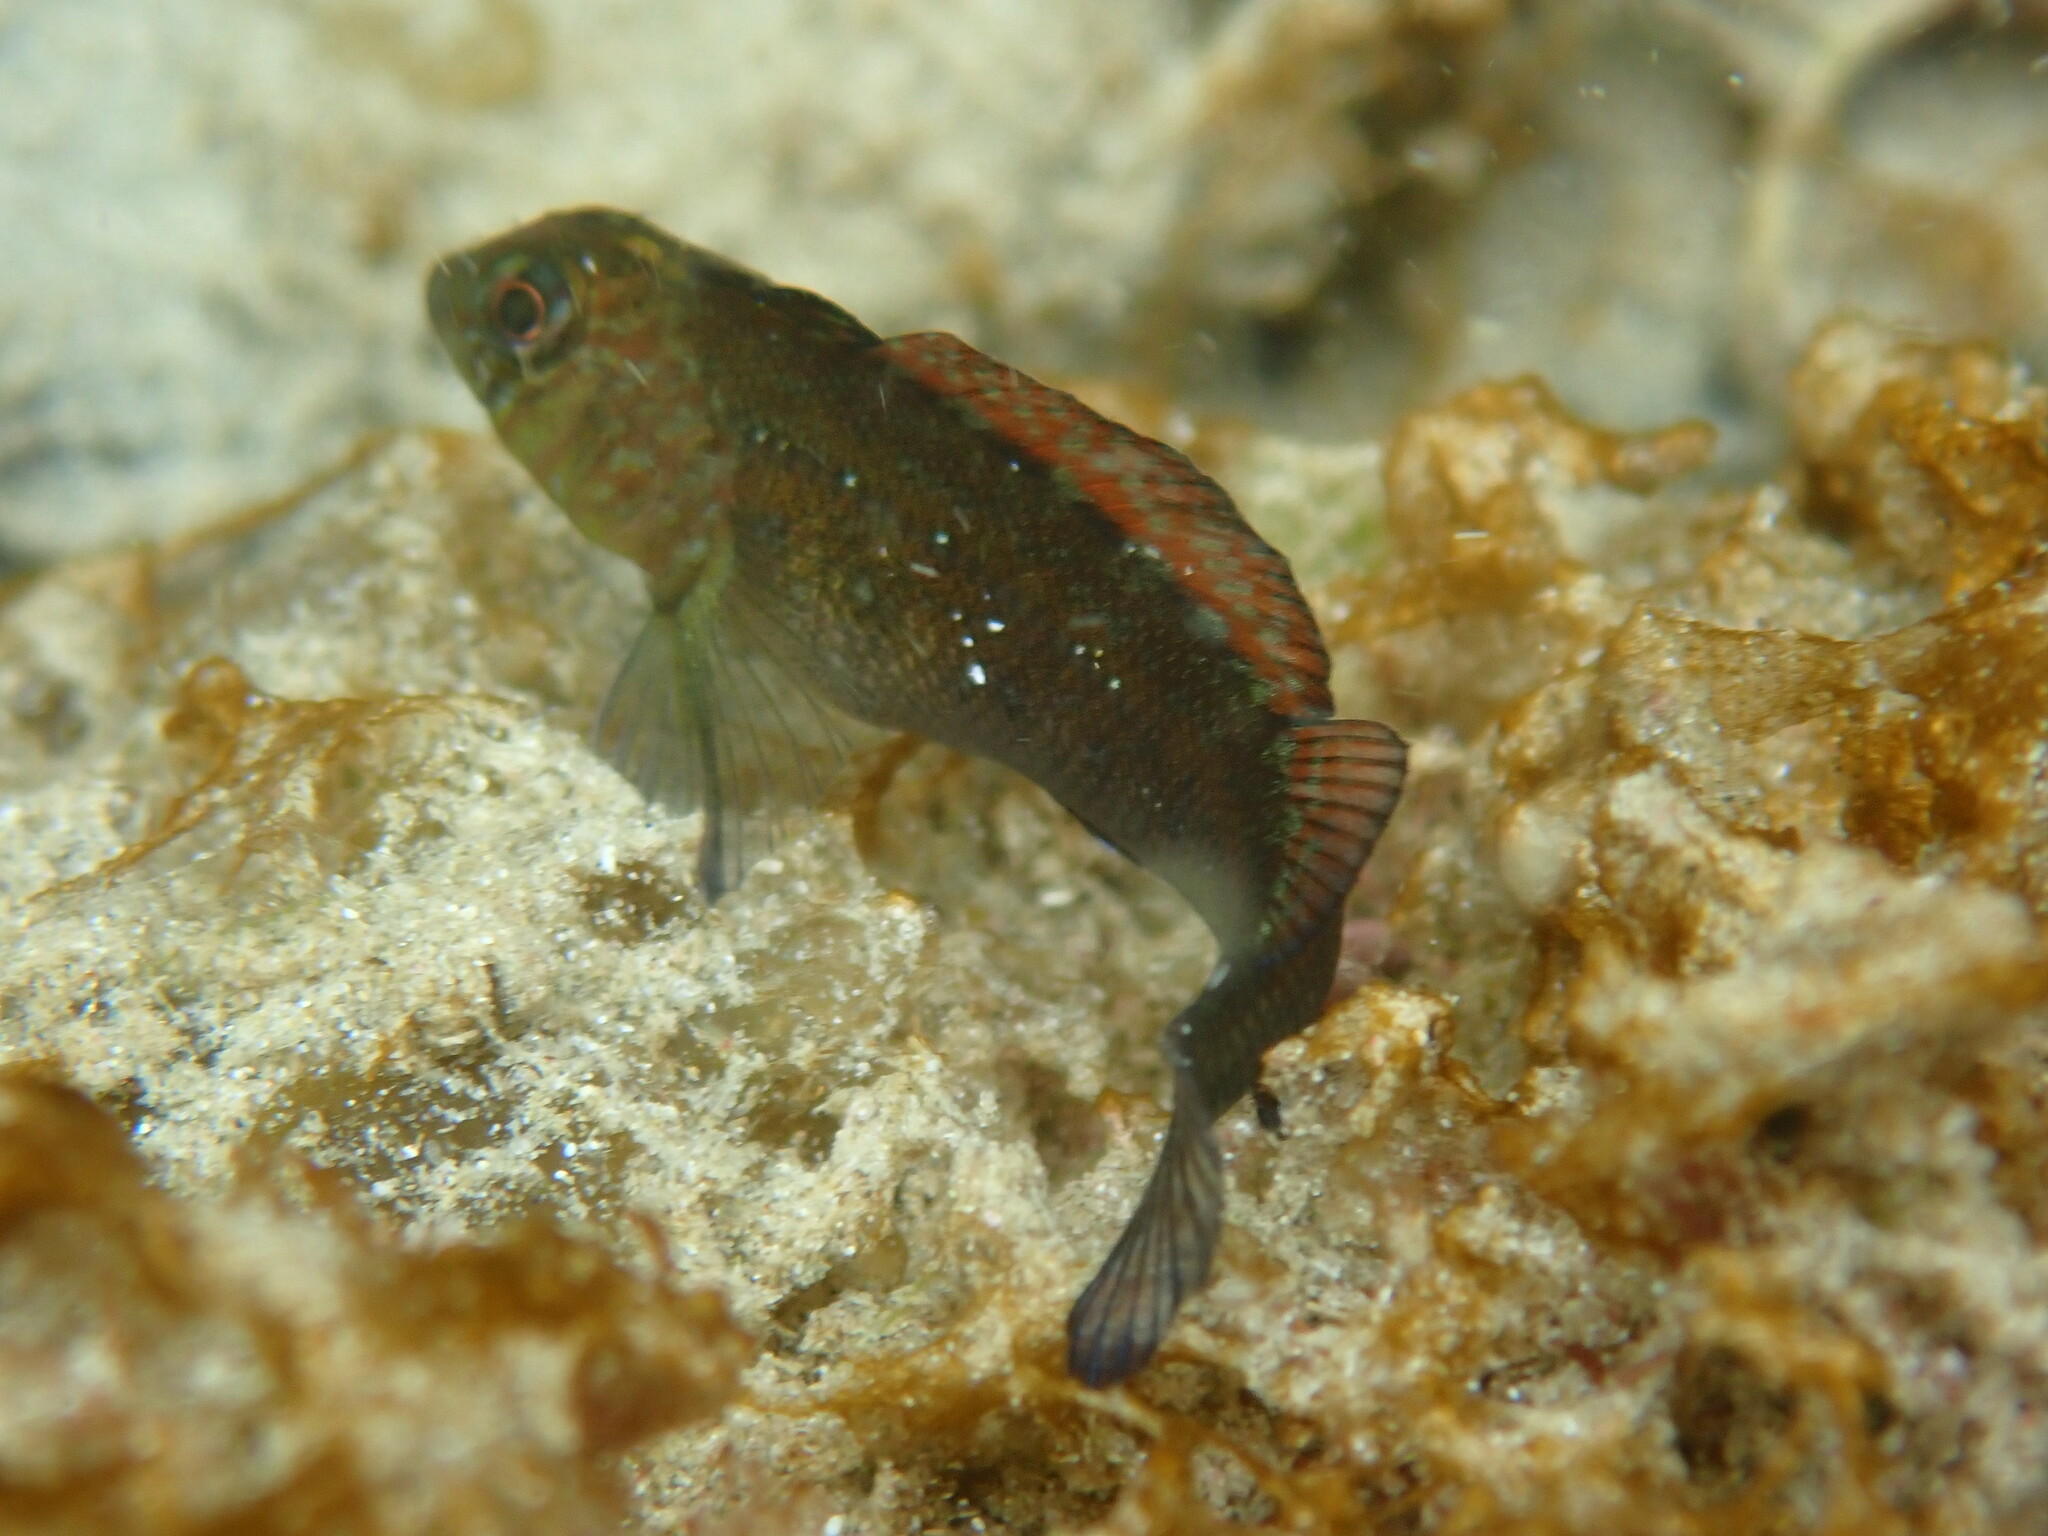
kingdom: Animalia
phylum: Chordata
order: Perciformes
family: Tripterygiidae
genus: Forsterygion
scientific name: Forsterygion lapillum
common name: Common triplefin
